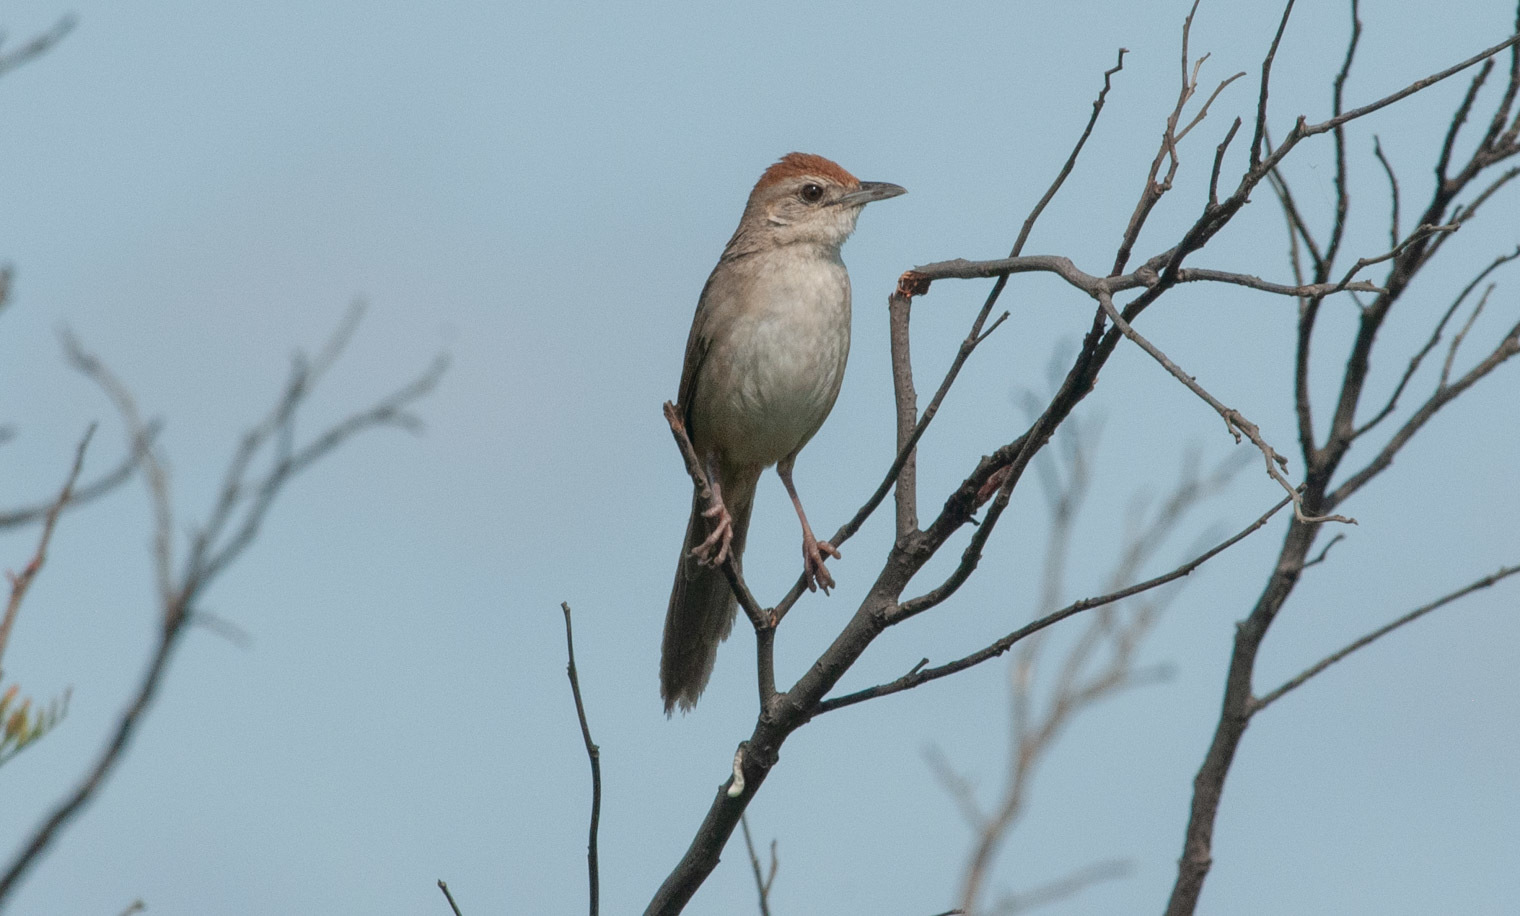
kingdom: Animalia
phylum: Chordata
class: Aves
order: Passeriformes
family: Locustellidae
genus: Megalurus
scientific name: Megalurus timoriensis
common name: Tawny grassbird
